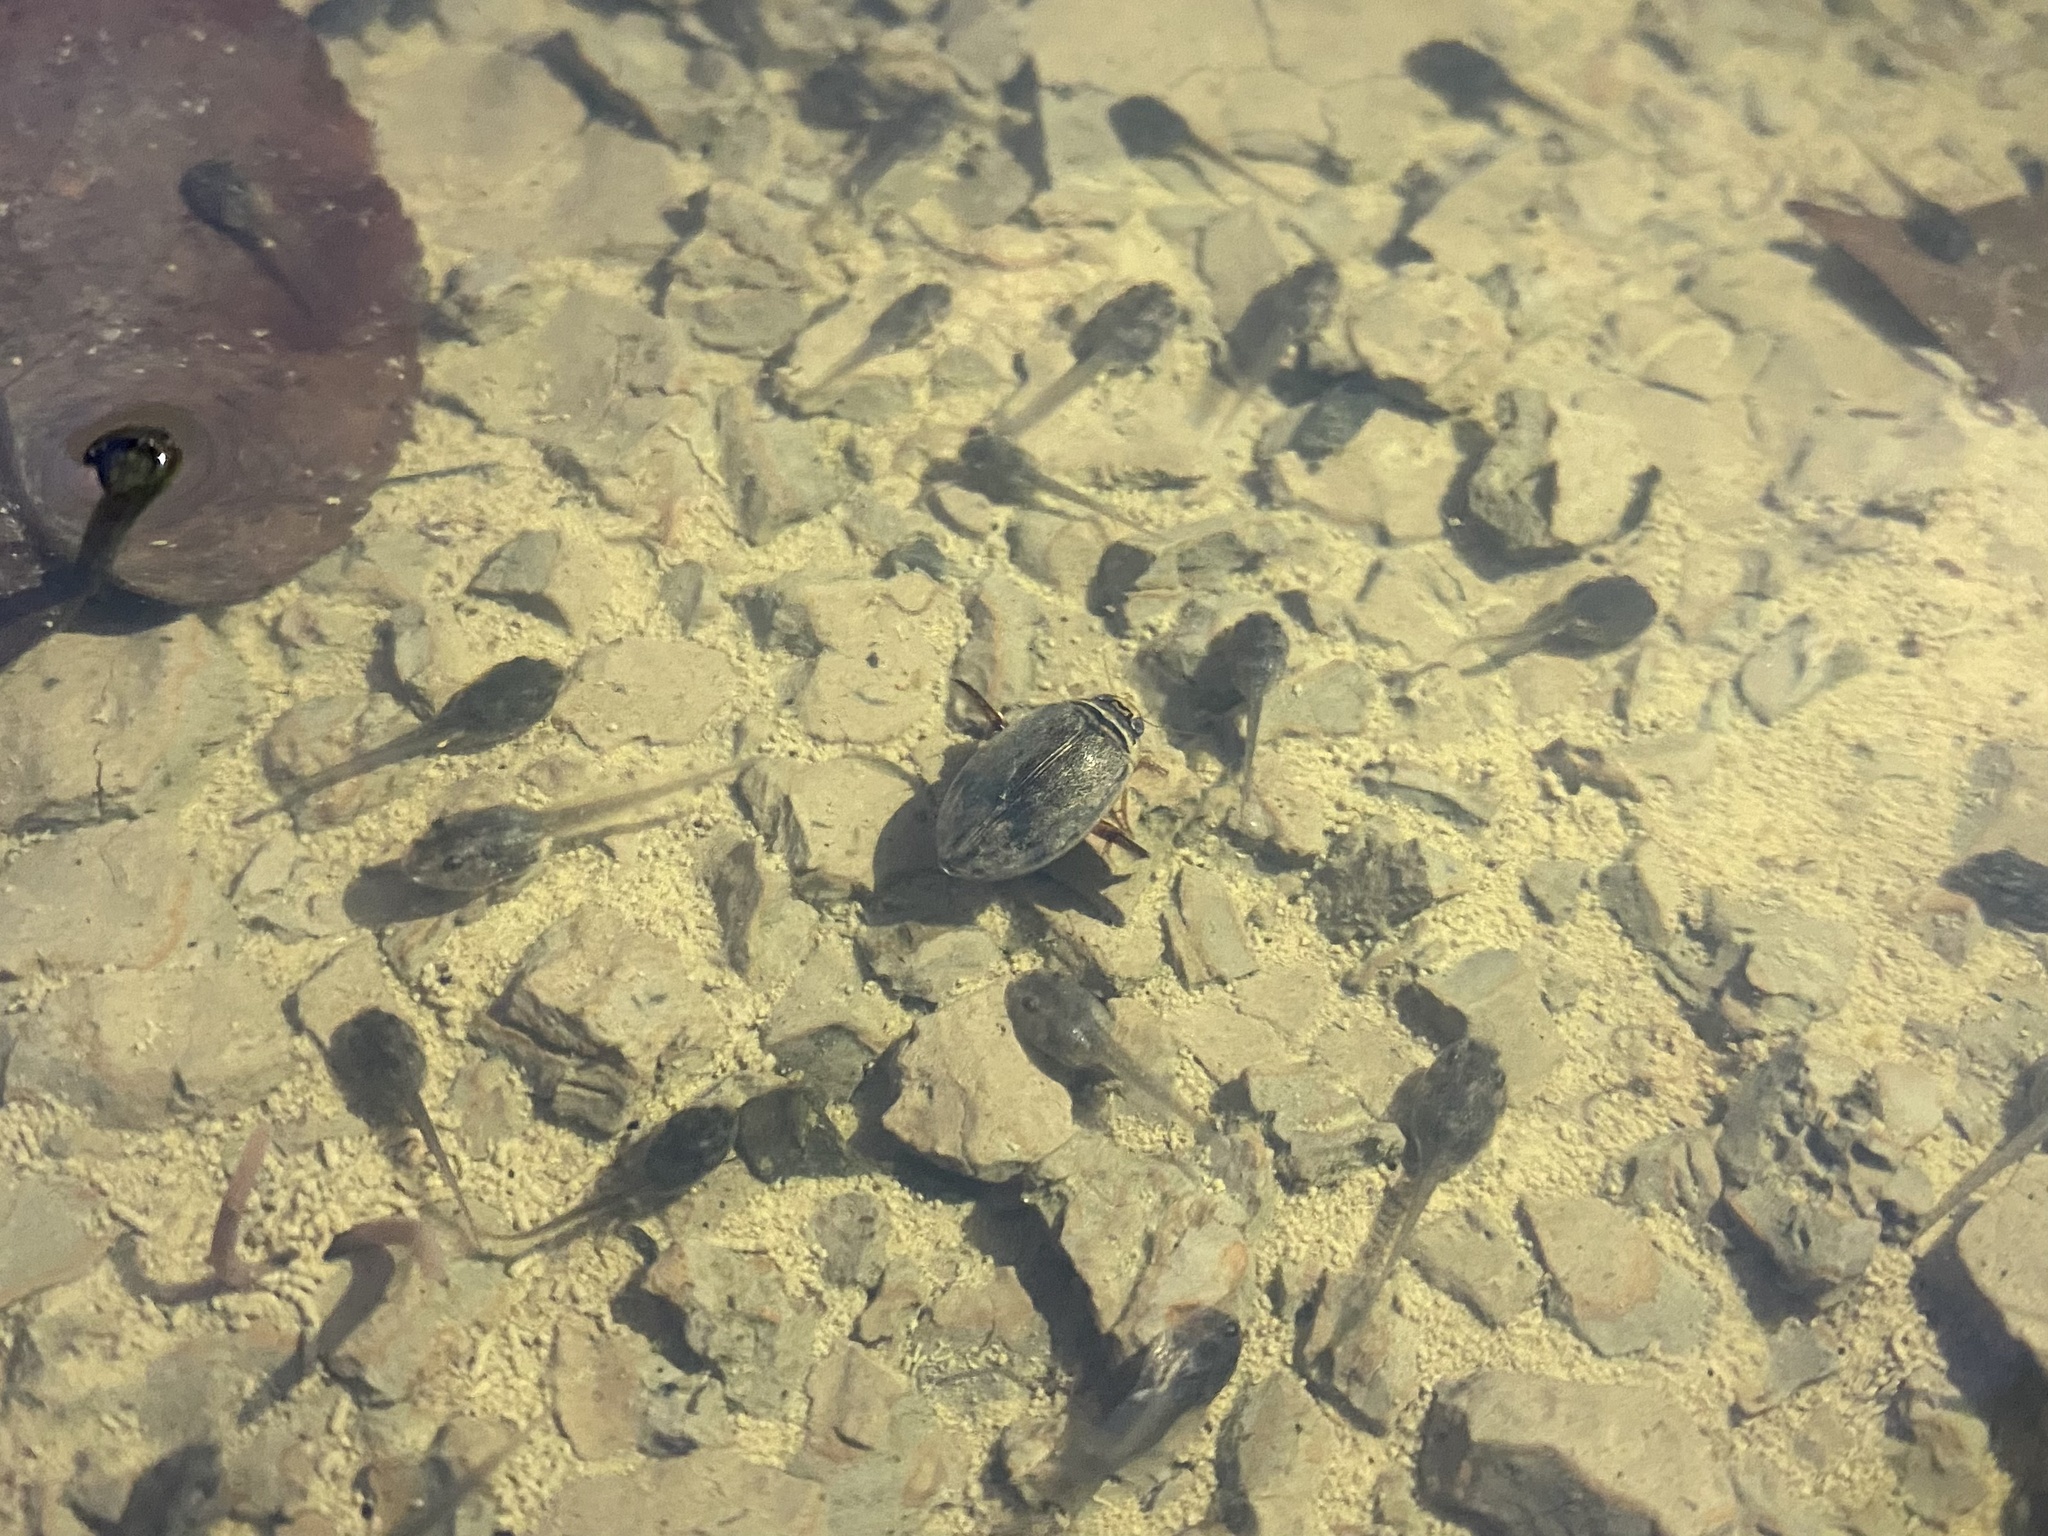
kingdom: Animalia
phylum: Arthropoda
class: Insecta
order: Coleoptera
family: Dytiscidae
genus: Thermonectus
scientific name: Thermonectus nigrofasciatus
